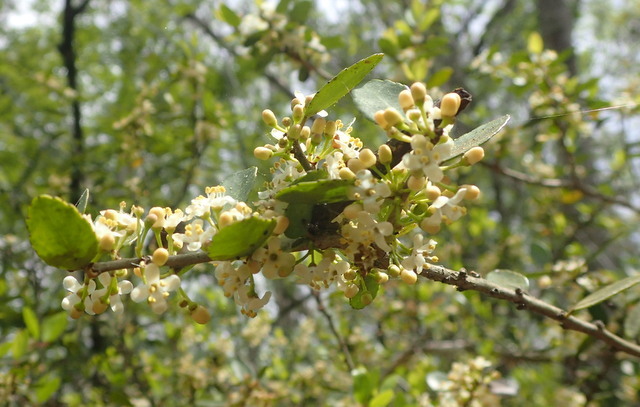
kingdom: Plantae
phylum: Tracheophyta
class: Magnoliopsida
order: Aquifoliales
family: Aquifoliaceae
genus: Ilex
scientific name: Ilex vomitoria
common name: Yaupon holly
